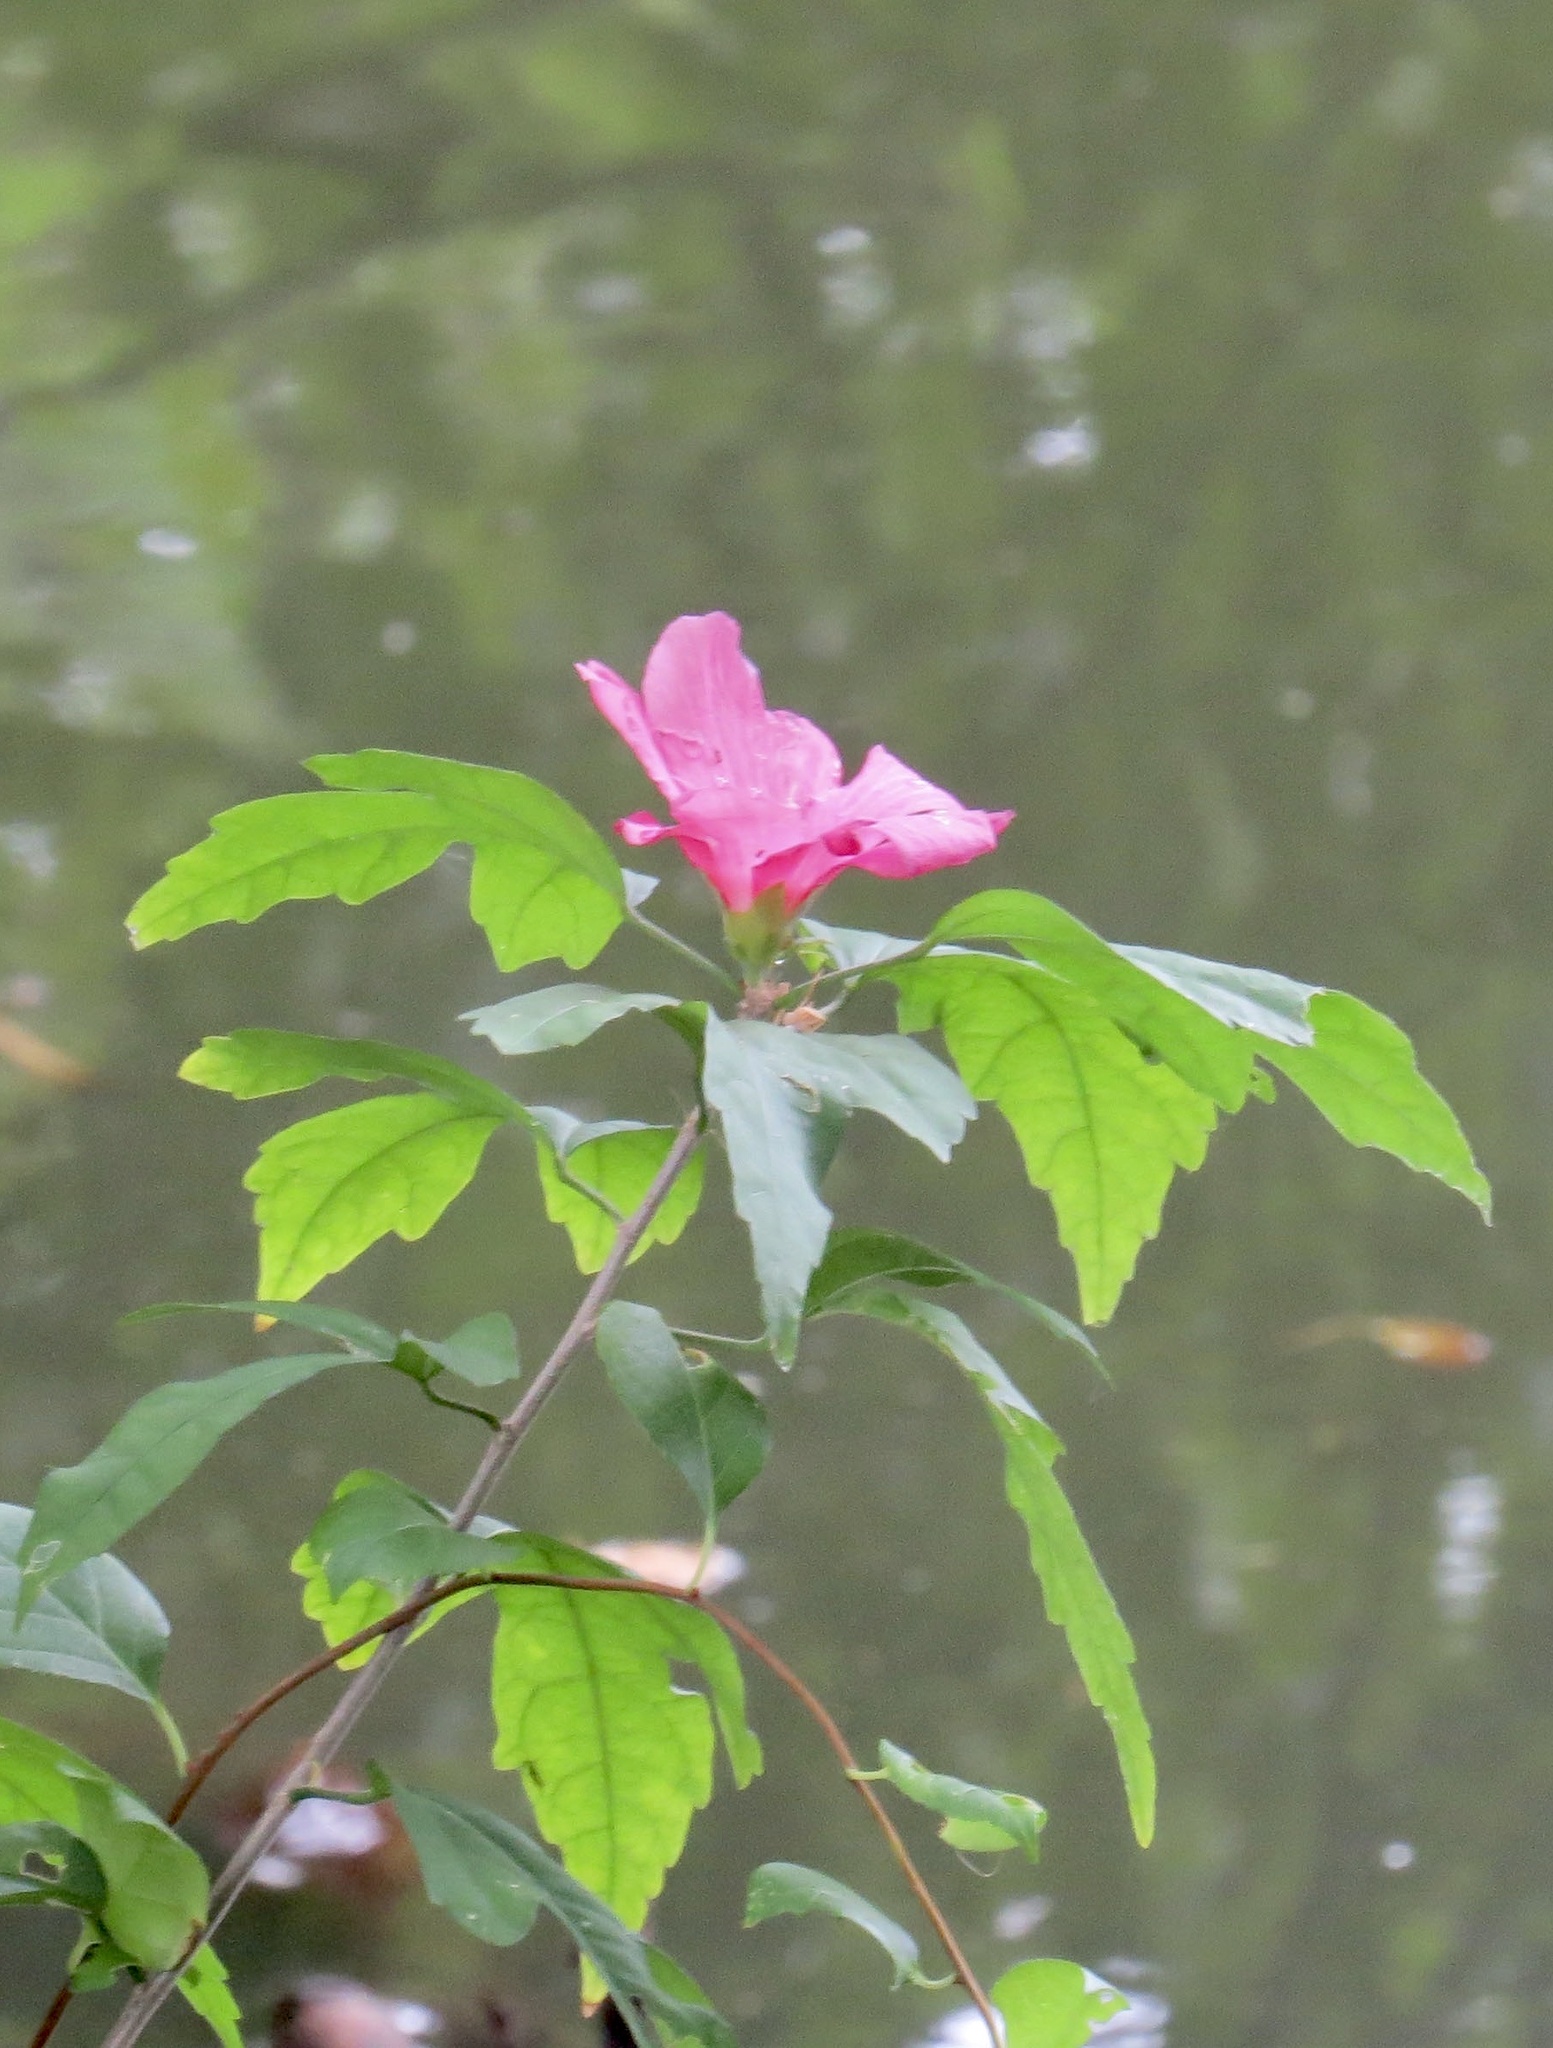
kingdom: Plantae
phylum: Tracheophyta
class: Magnoliopsida
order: Malvales
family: Malvaceae
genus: Hibiscus
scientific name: Hibiscus syriacus
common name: Syrian ketmia
